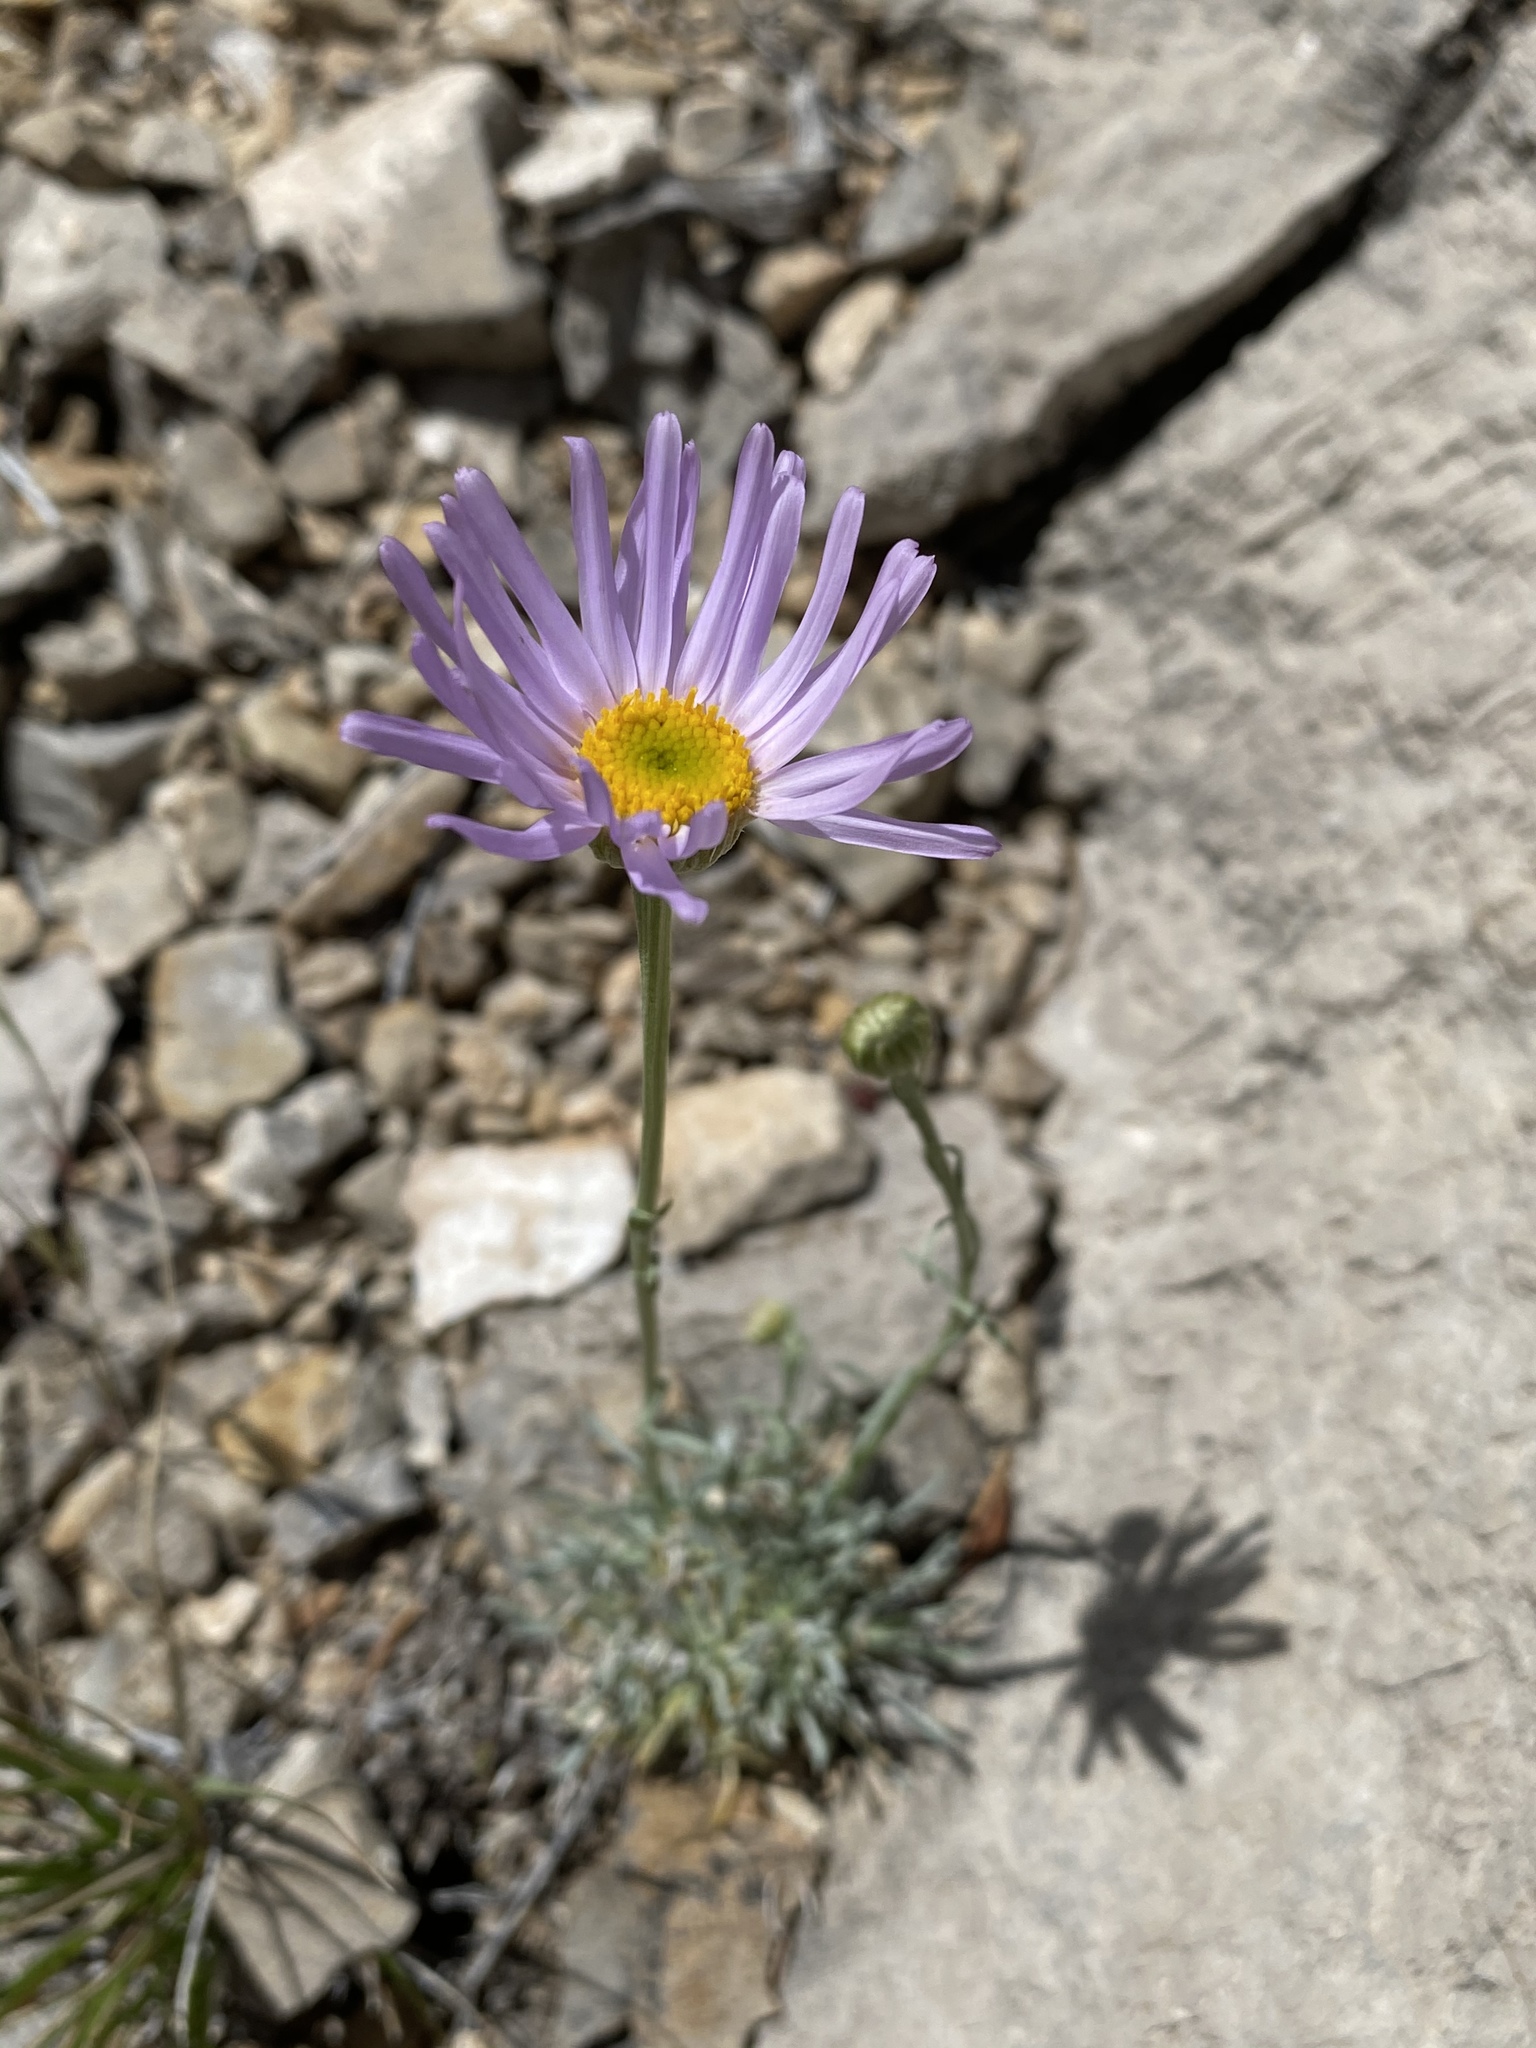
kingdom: Plantae
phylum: Tracheophyta
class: Magnoliopsida
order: Asterales
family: Asteraceae
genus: Erigeron
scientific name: Erigeron argentatus
